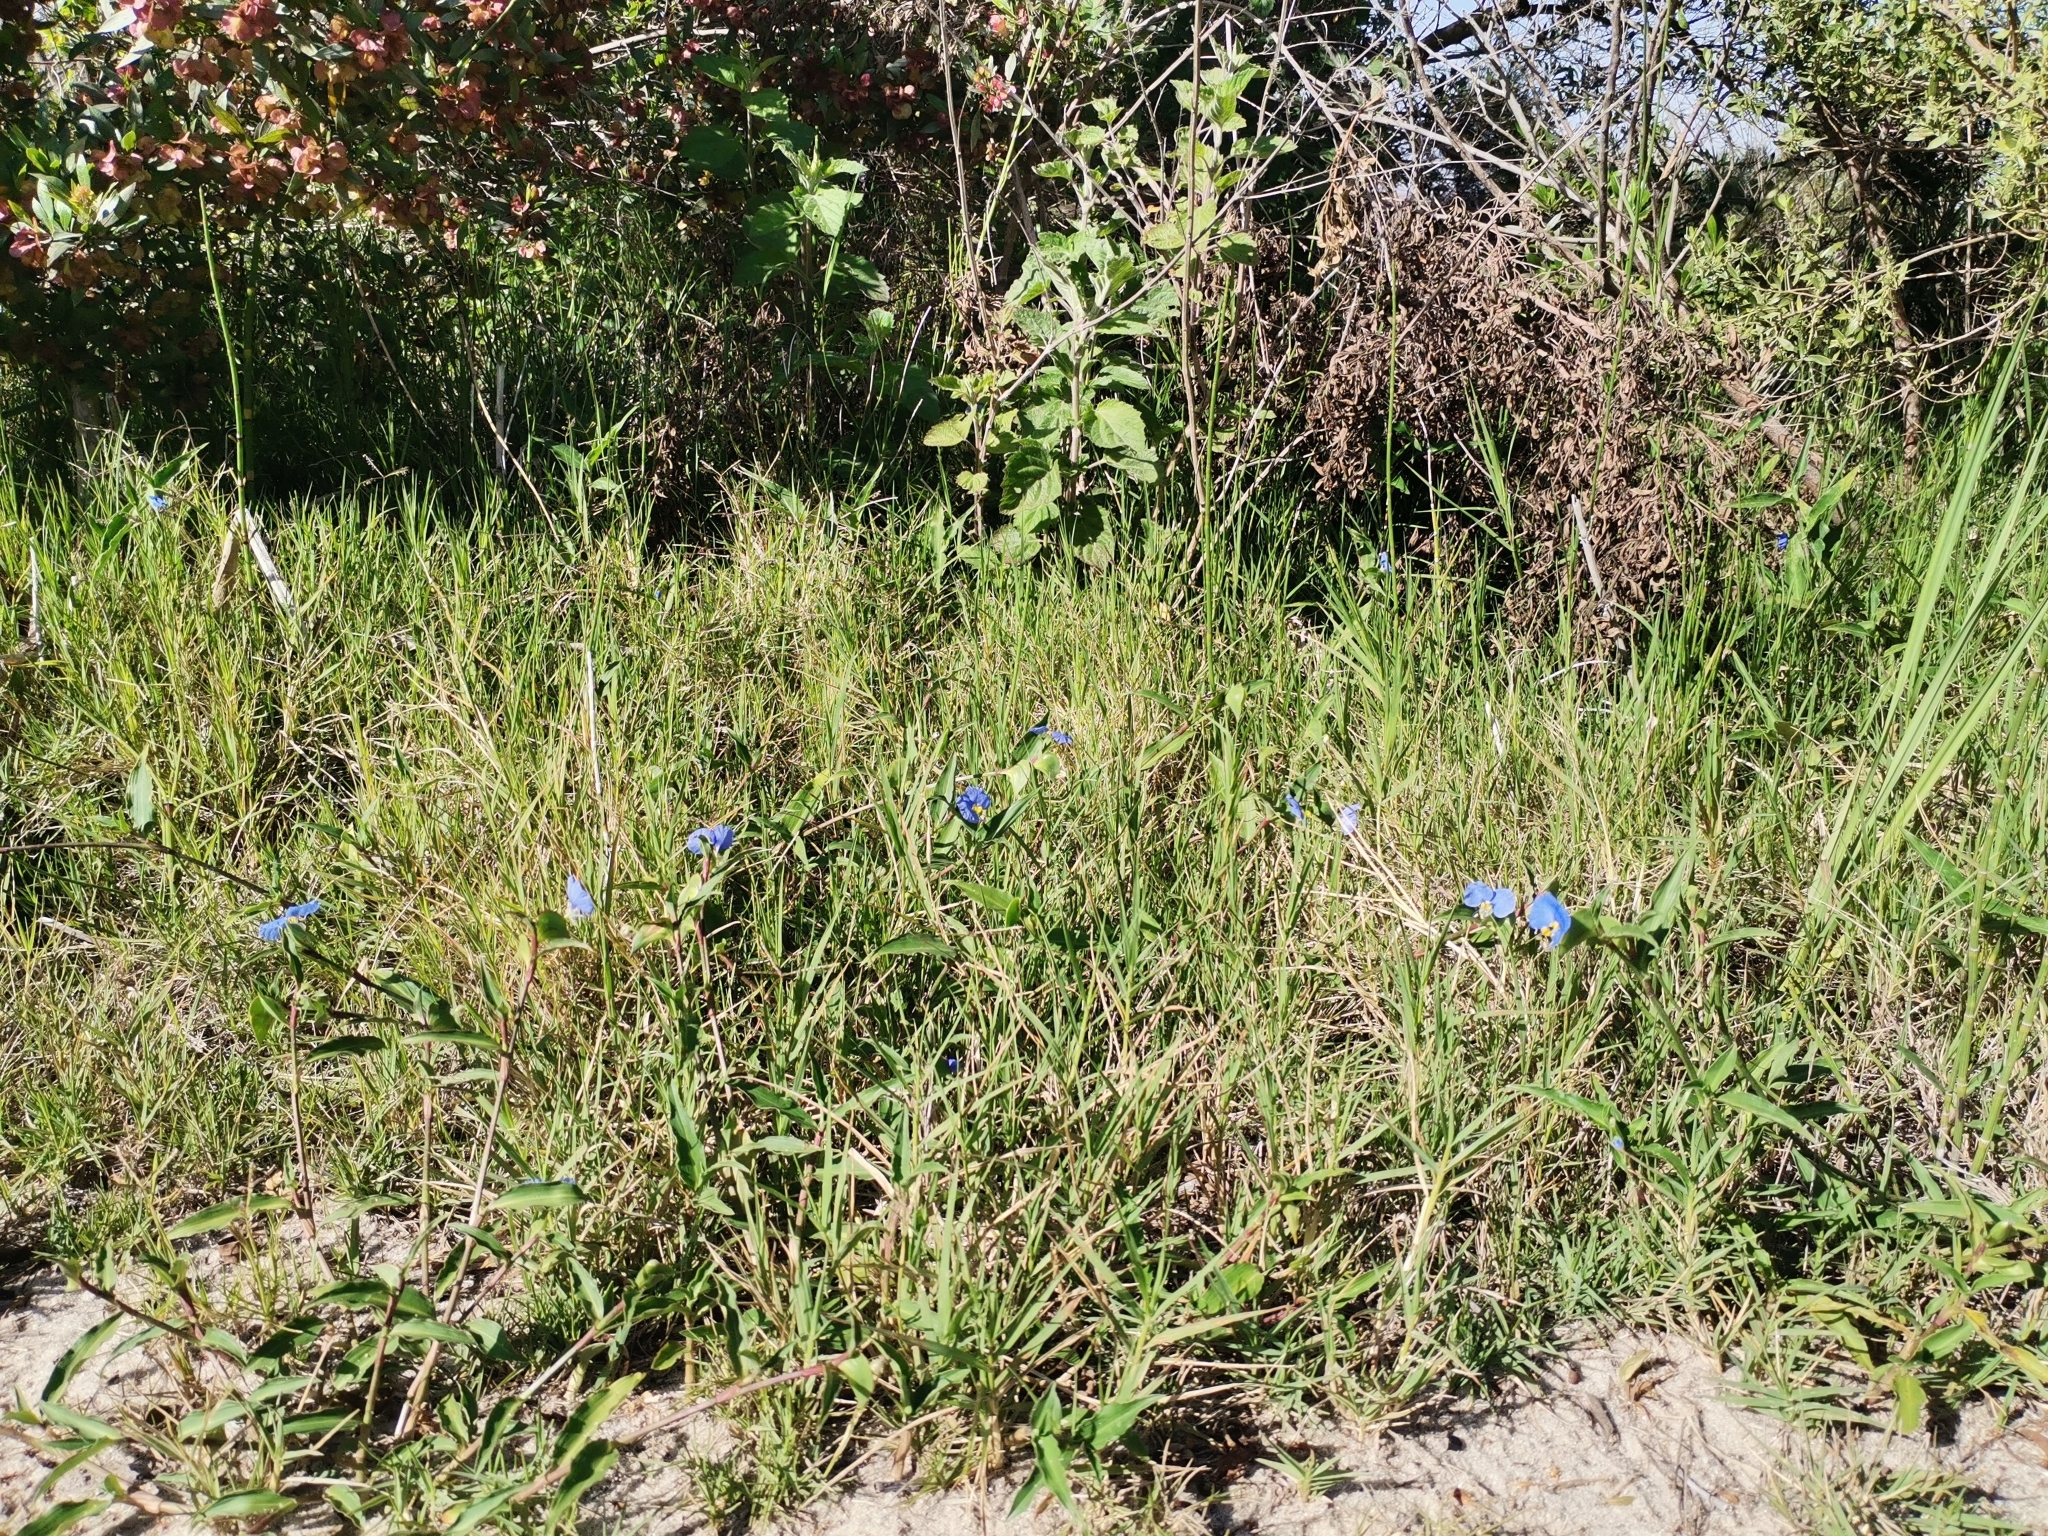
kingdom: Plantae
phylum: Tracheophyta
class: Liliopsida
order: Commelinales
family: Commelinaceae
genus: Commelina
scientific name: Commelina erecta
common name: Blousel blommetjie
